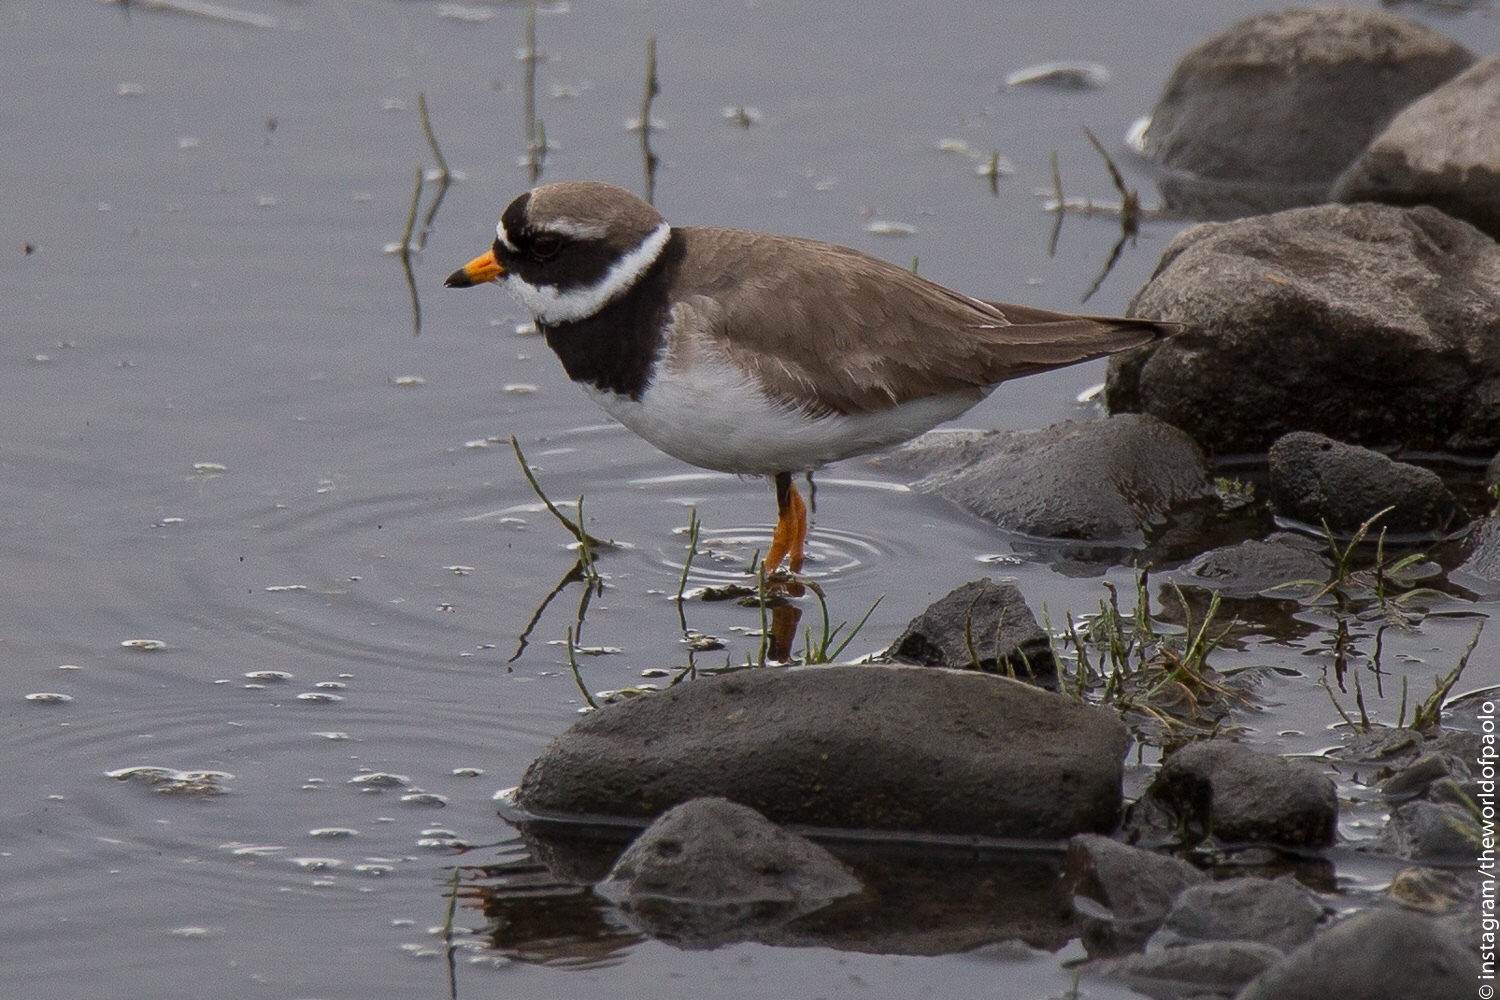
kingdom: Animalia
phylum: Chordata
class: Aves
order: Charadriiformes
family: Charadriidae
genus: Charadrius
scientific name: Charadrius hiaticula
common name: Common ringed plover
